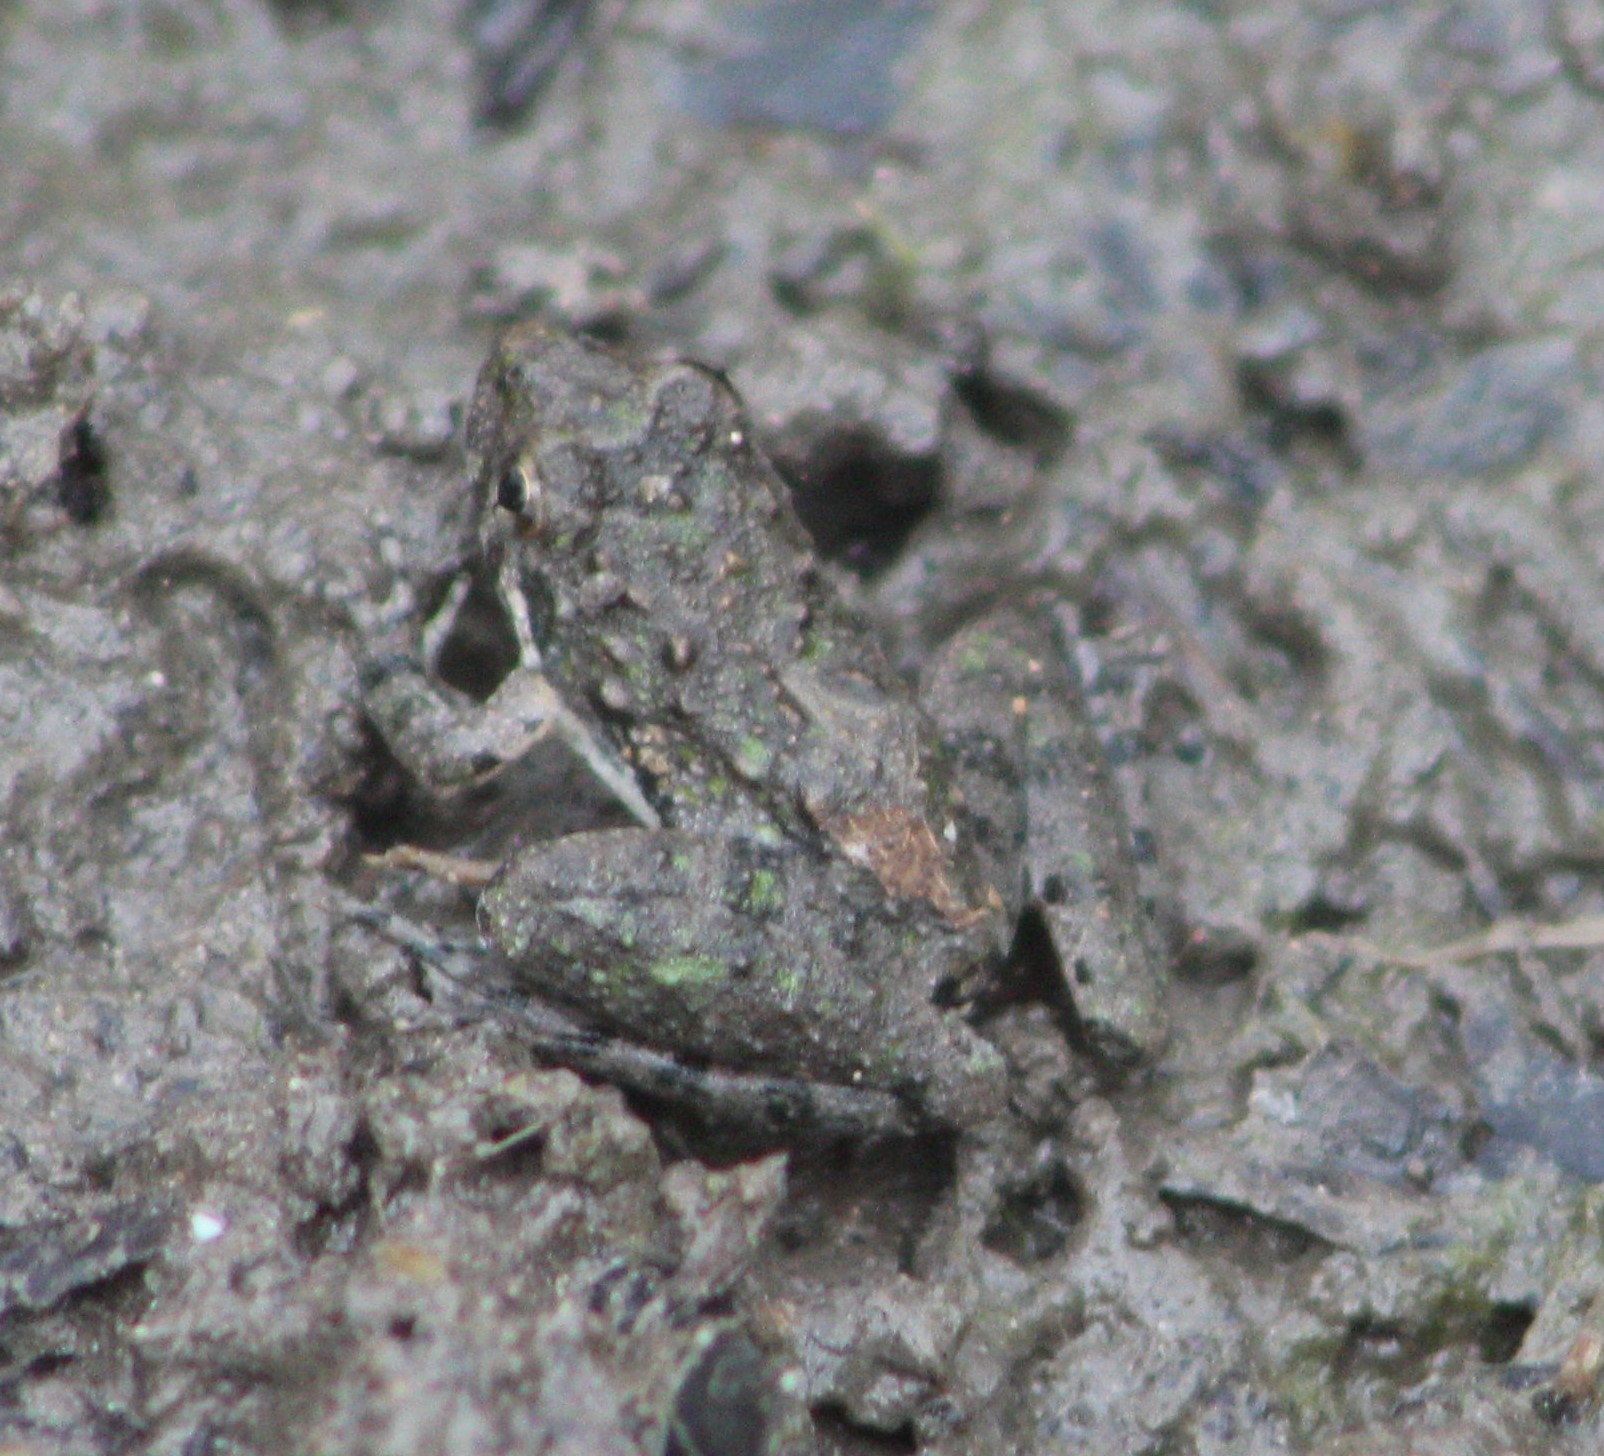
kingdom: Animalia
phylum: Chordata
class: Amphibia
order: Anura
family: Hylidae
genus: Acris
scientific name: Acris blanchardi
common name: Blanchard's cricket frog
